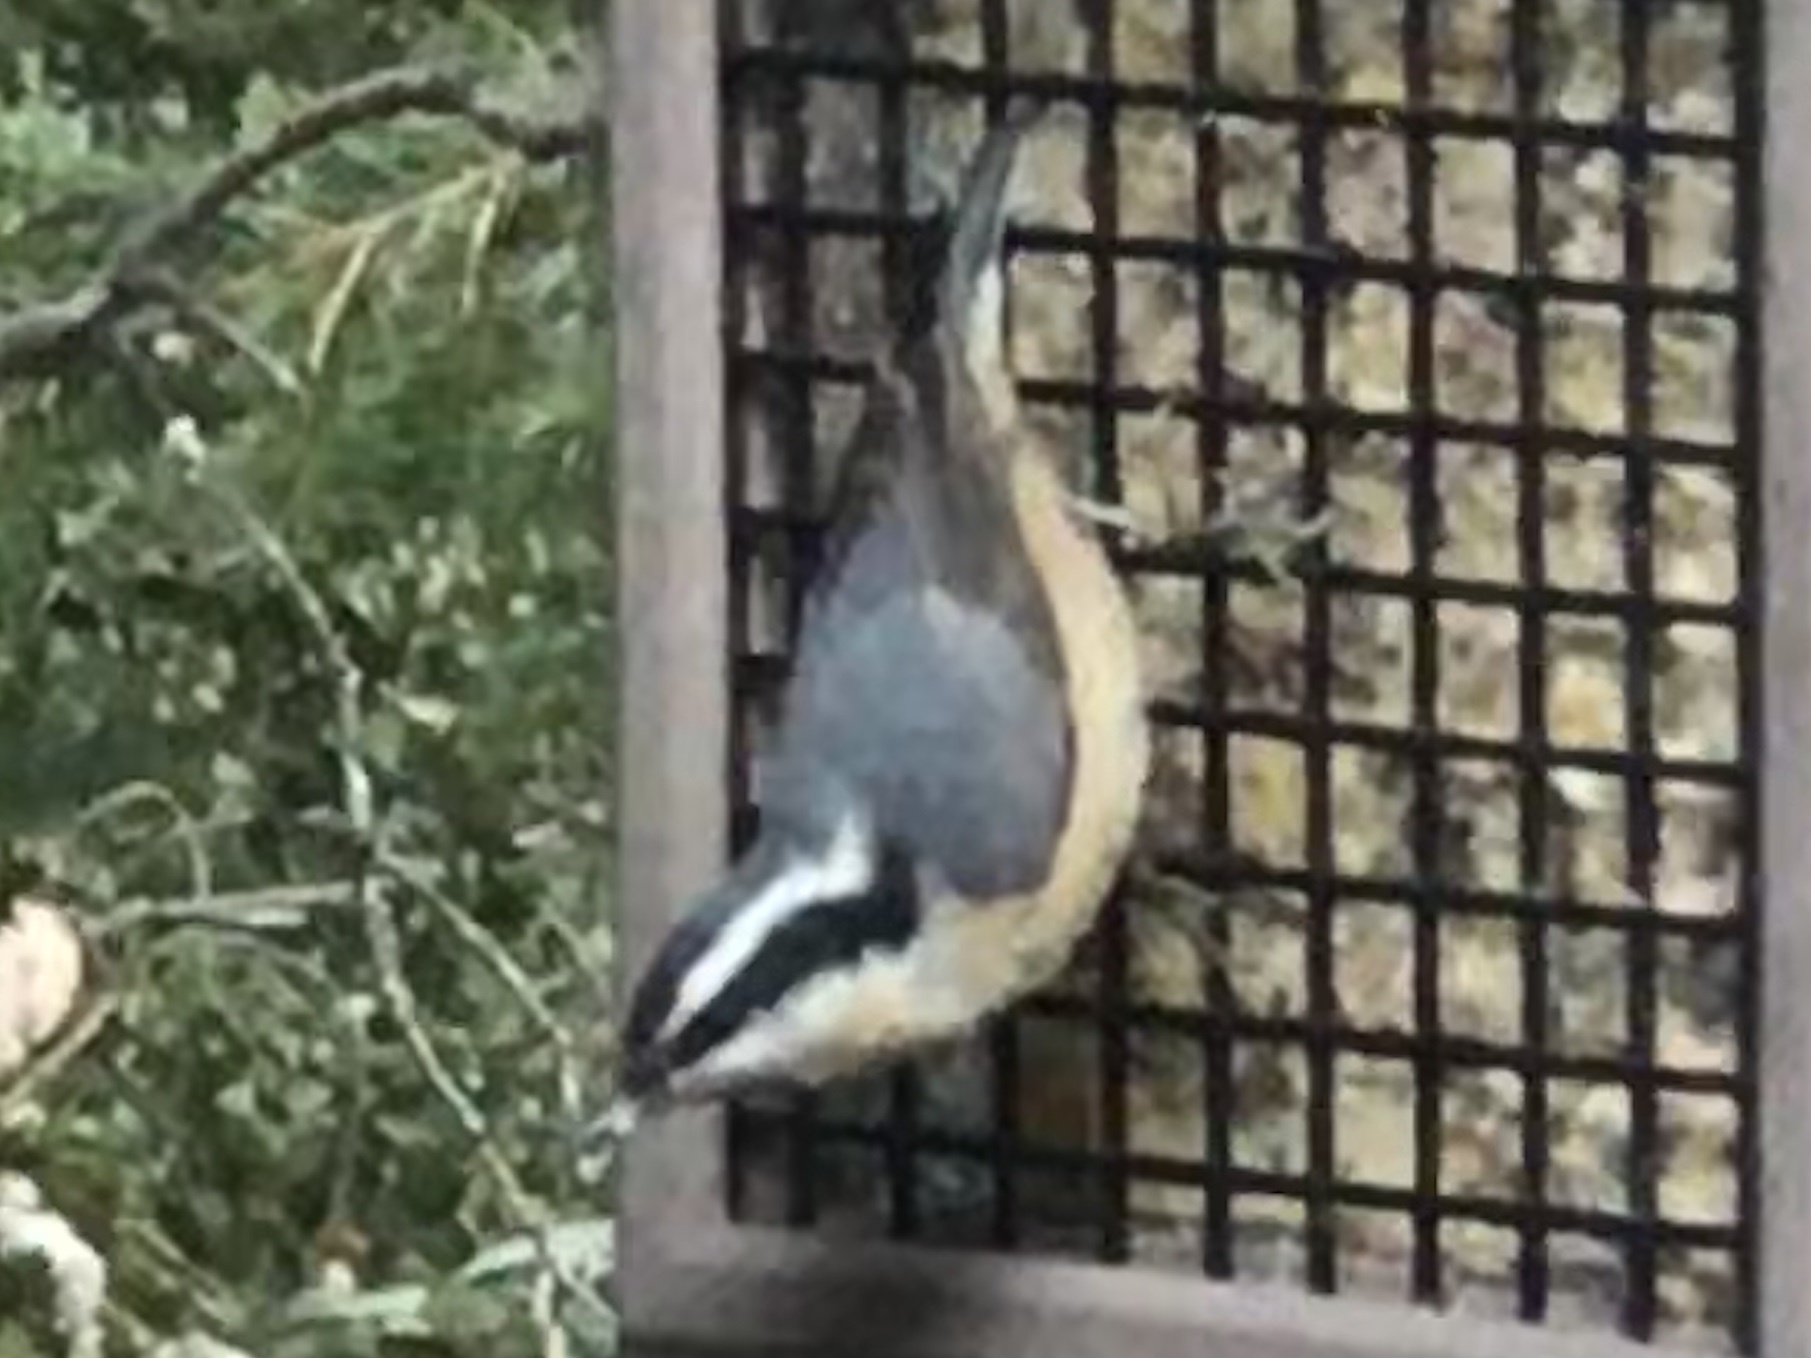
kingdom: Animalia
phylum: Chordata
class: Aves
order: Passeriformes
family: Sittidae
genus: Sitta
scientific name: Sitta canadensis
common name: Red-breasted nuthatch
